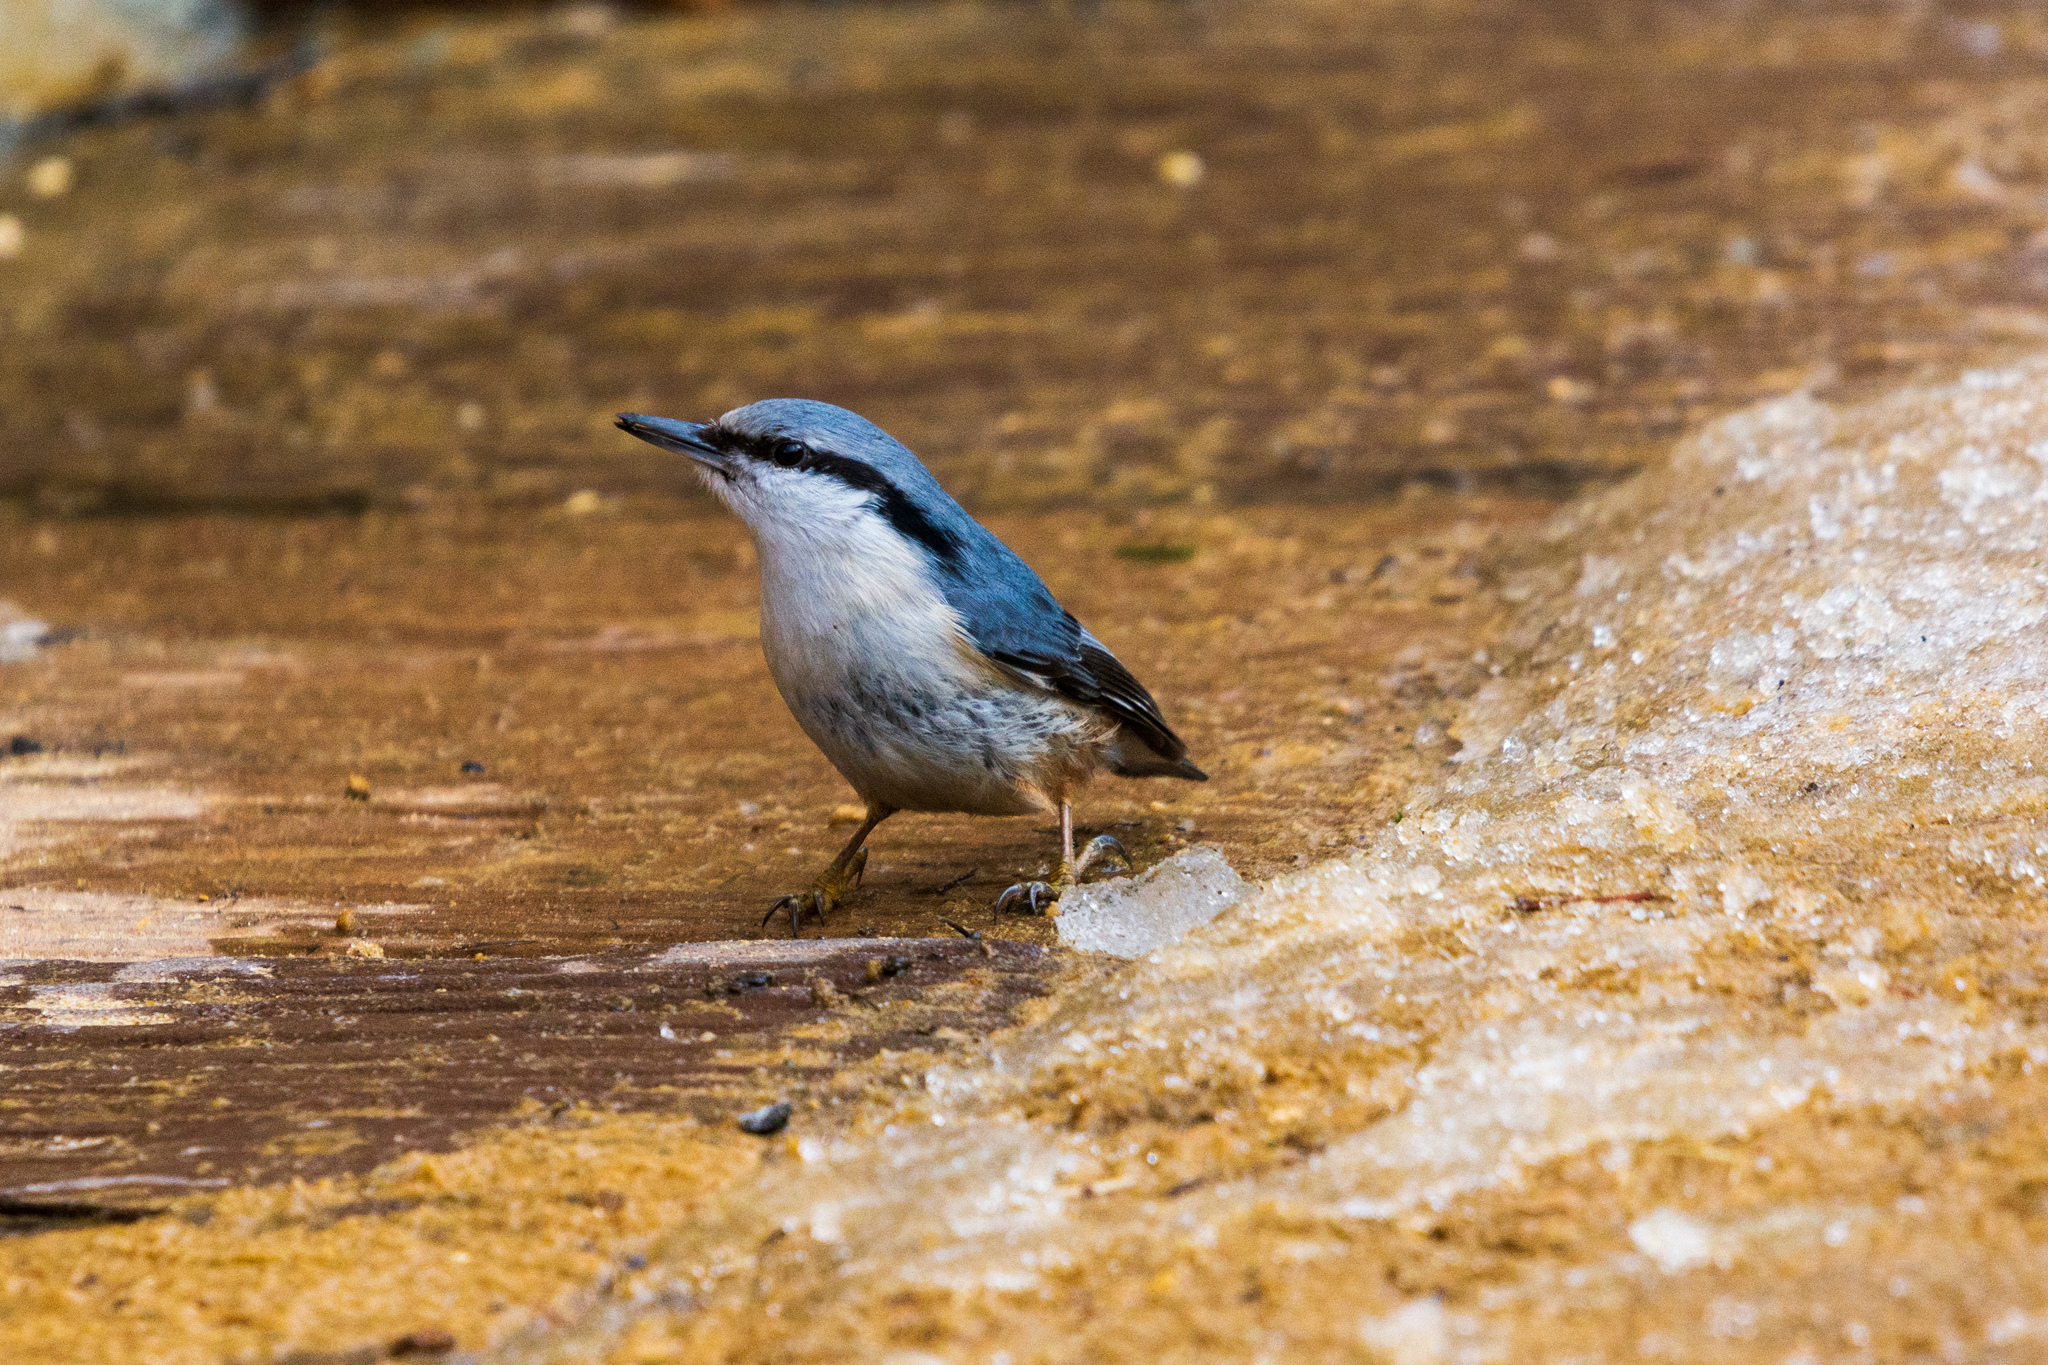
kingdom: Animalia
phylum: Chordata
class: Aves
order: Passeriformes
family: Sittidae
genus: Sitta
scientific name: Sitta europaea
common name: Eurasian nuthatch
